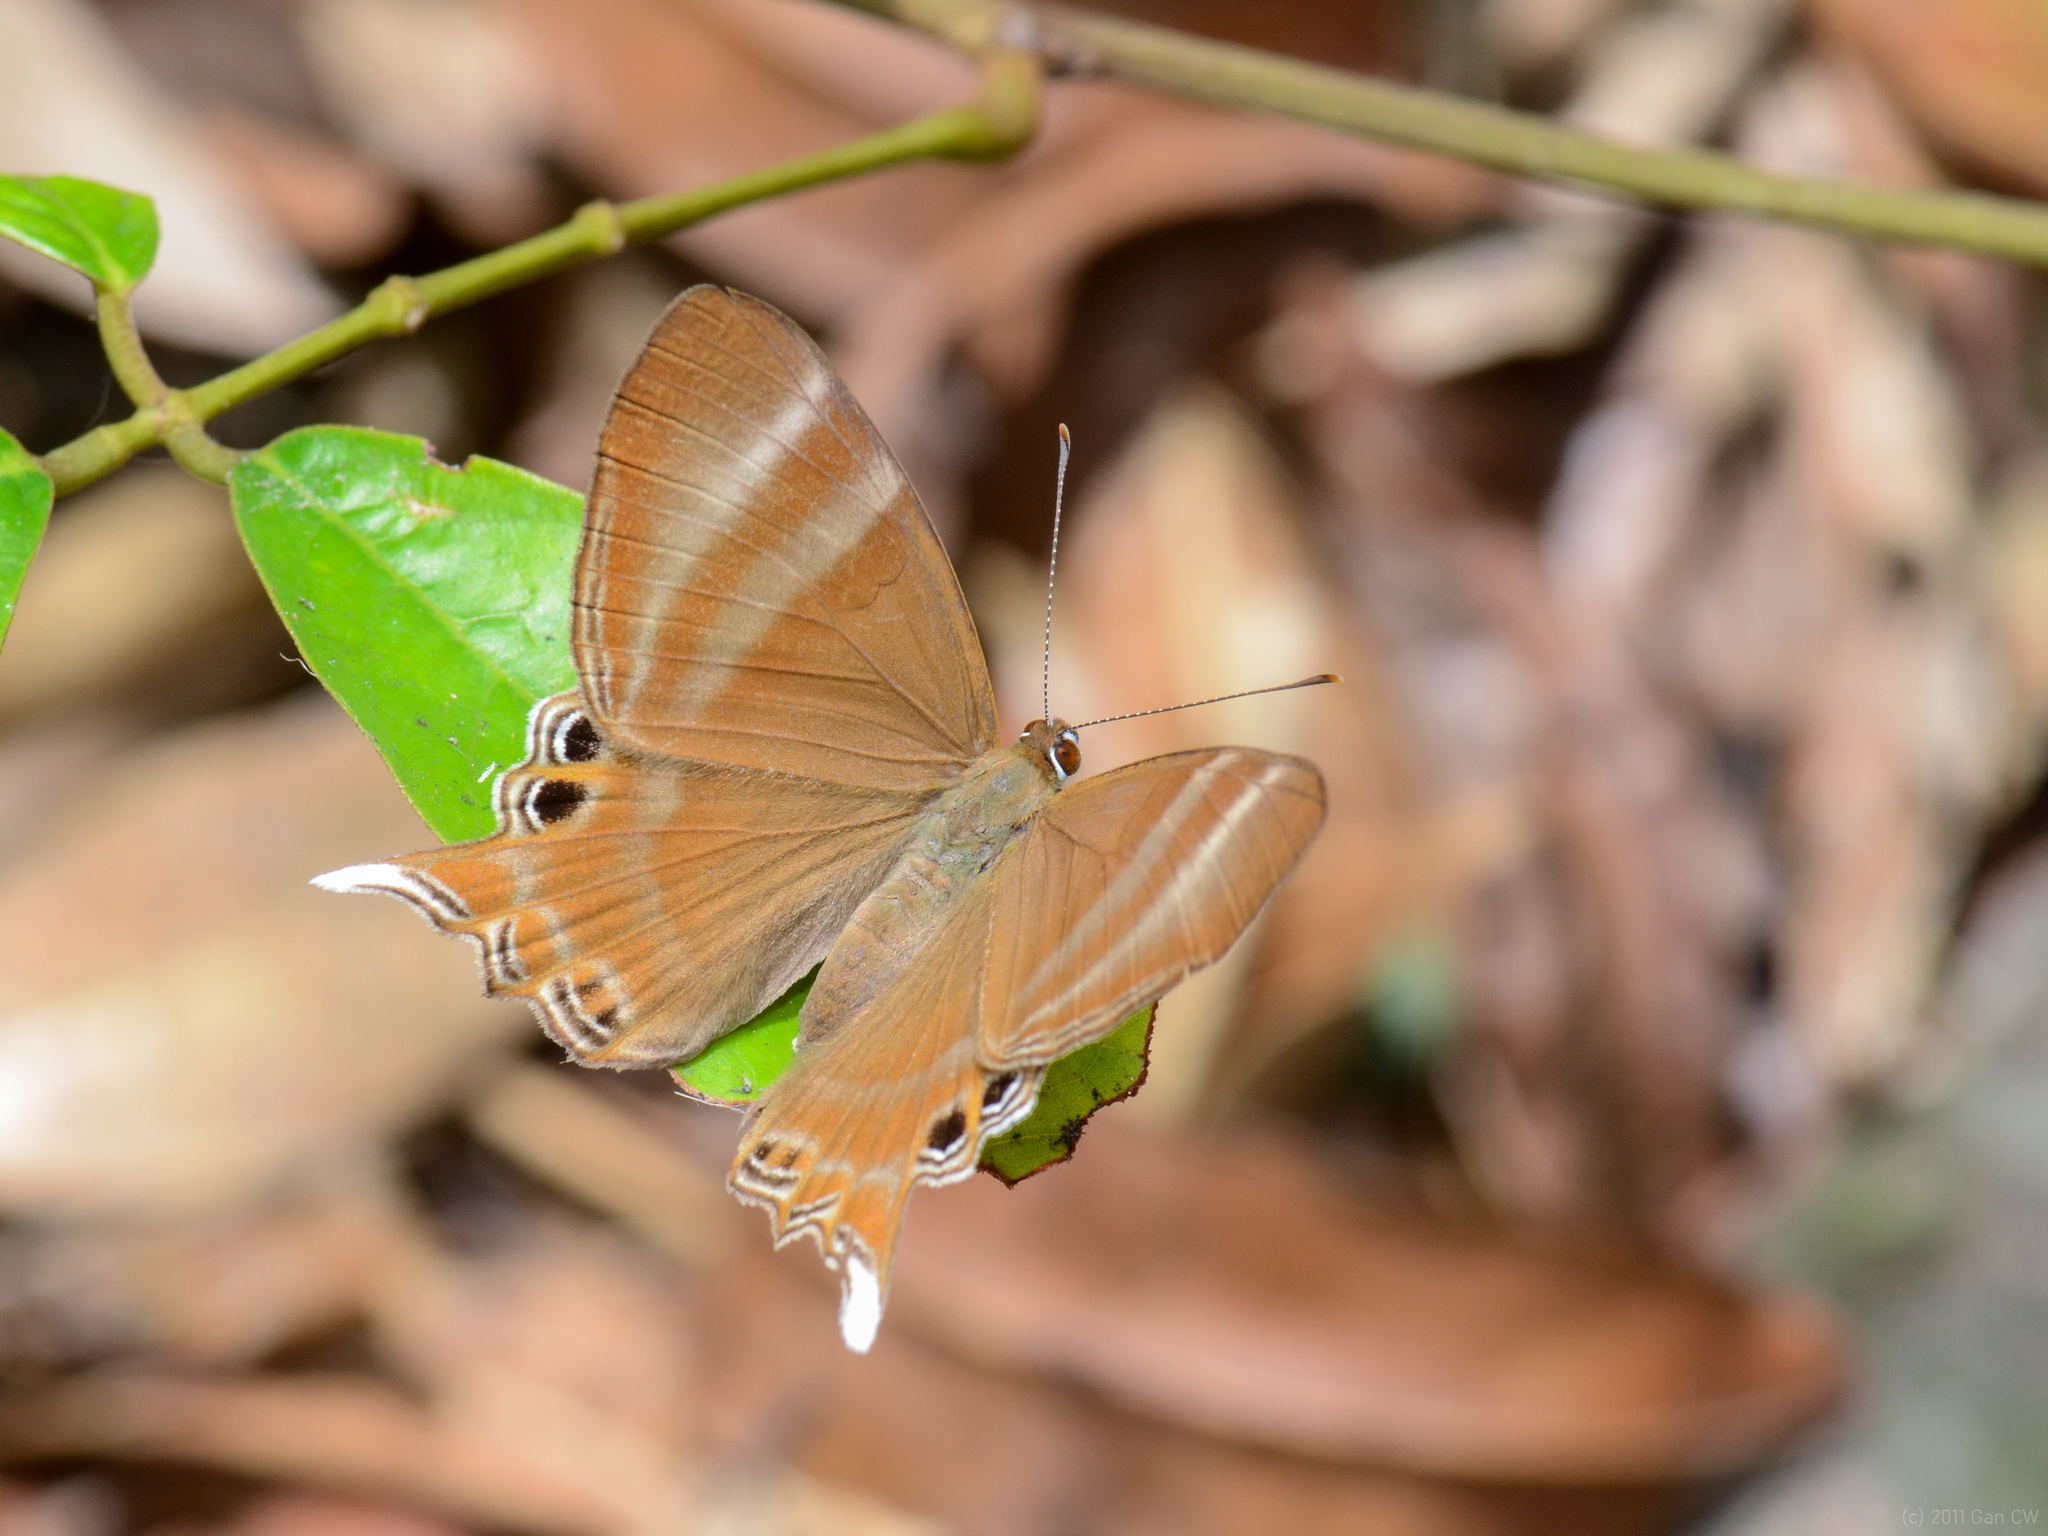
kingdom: Animalia
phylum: Arthropoda
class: Insecta
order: Lepidoptera
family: Lycaenidae
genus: Abisara
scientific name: Abisara savitri
